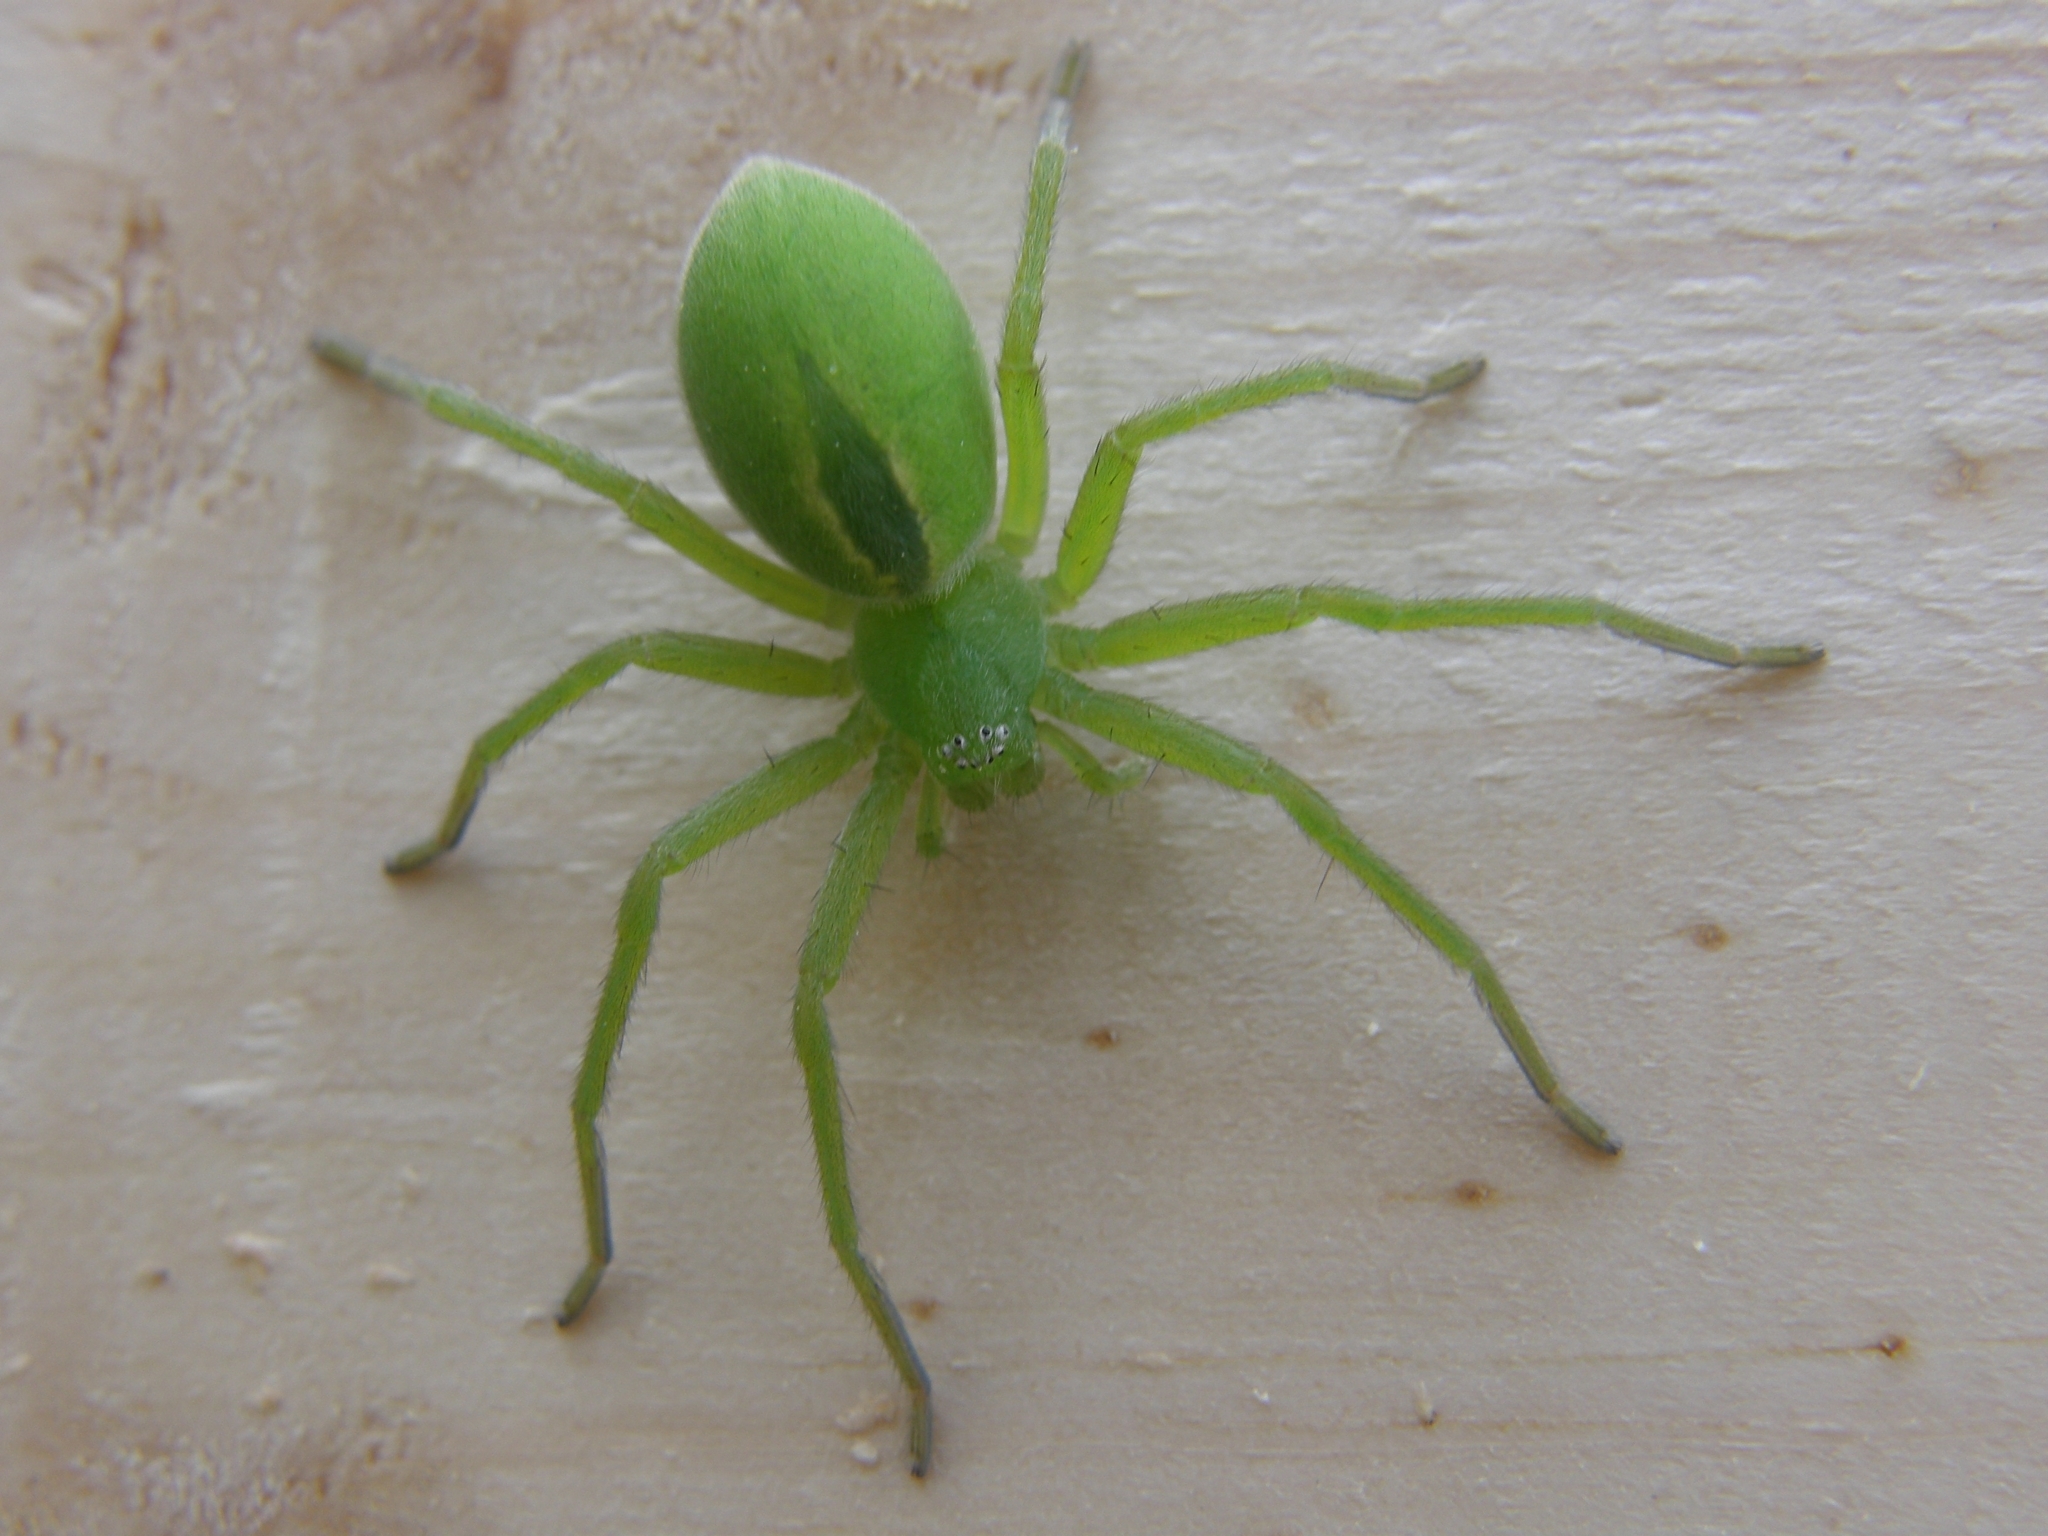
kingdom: Animalia
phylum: Arthropoda
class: Arachnida
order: Araneae
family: Sparassidae
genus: Micrommata
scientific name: Micrommata virescens
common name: Green spider
